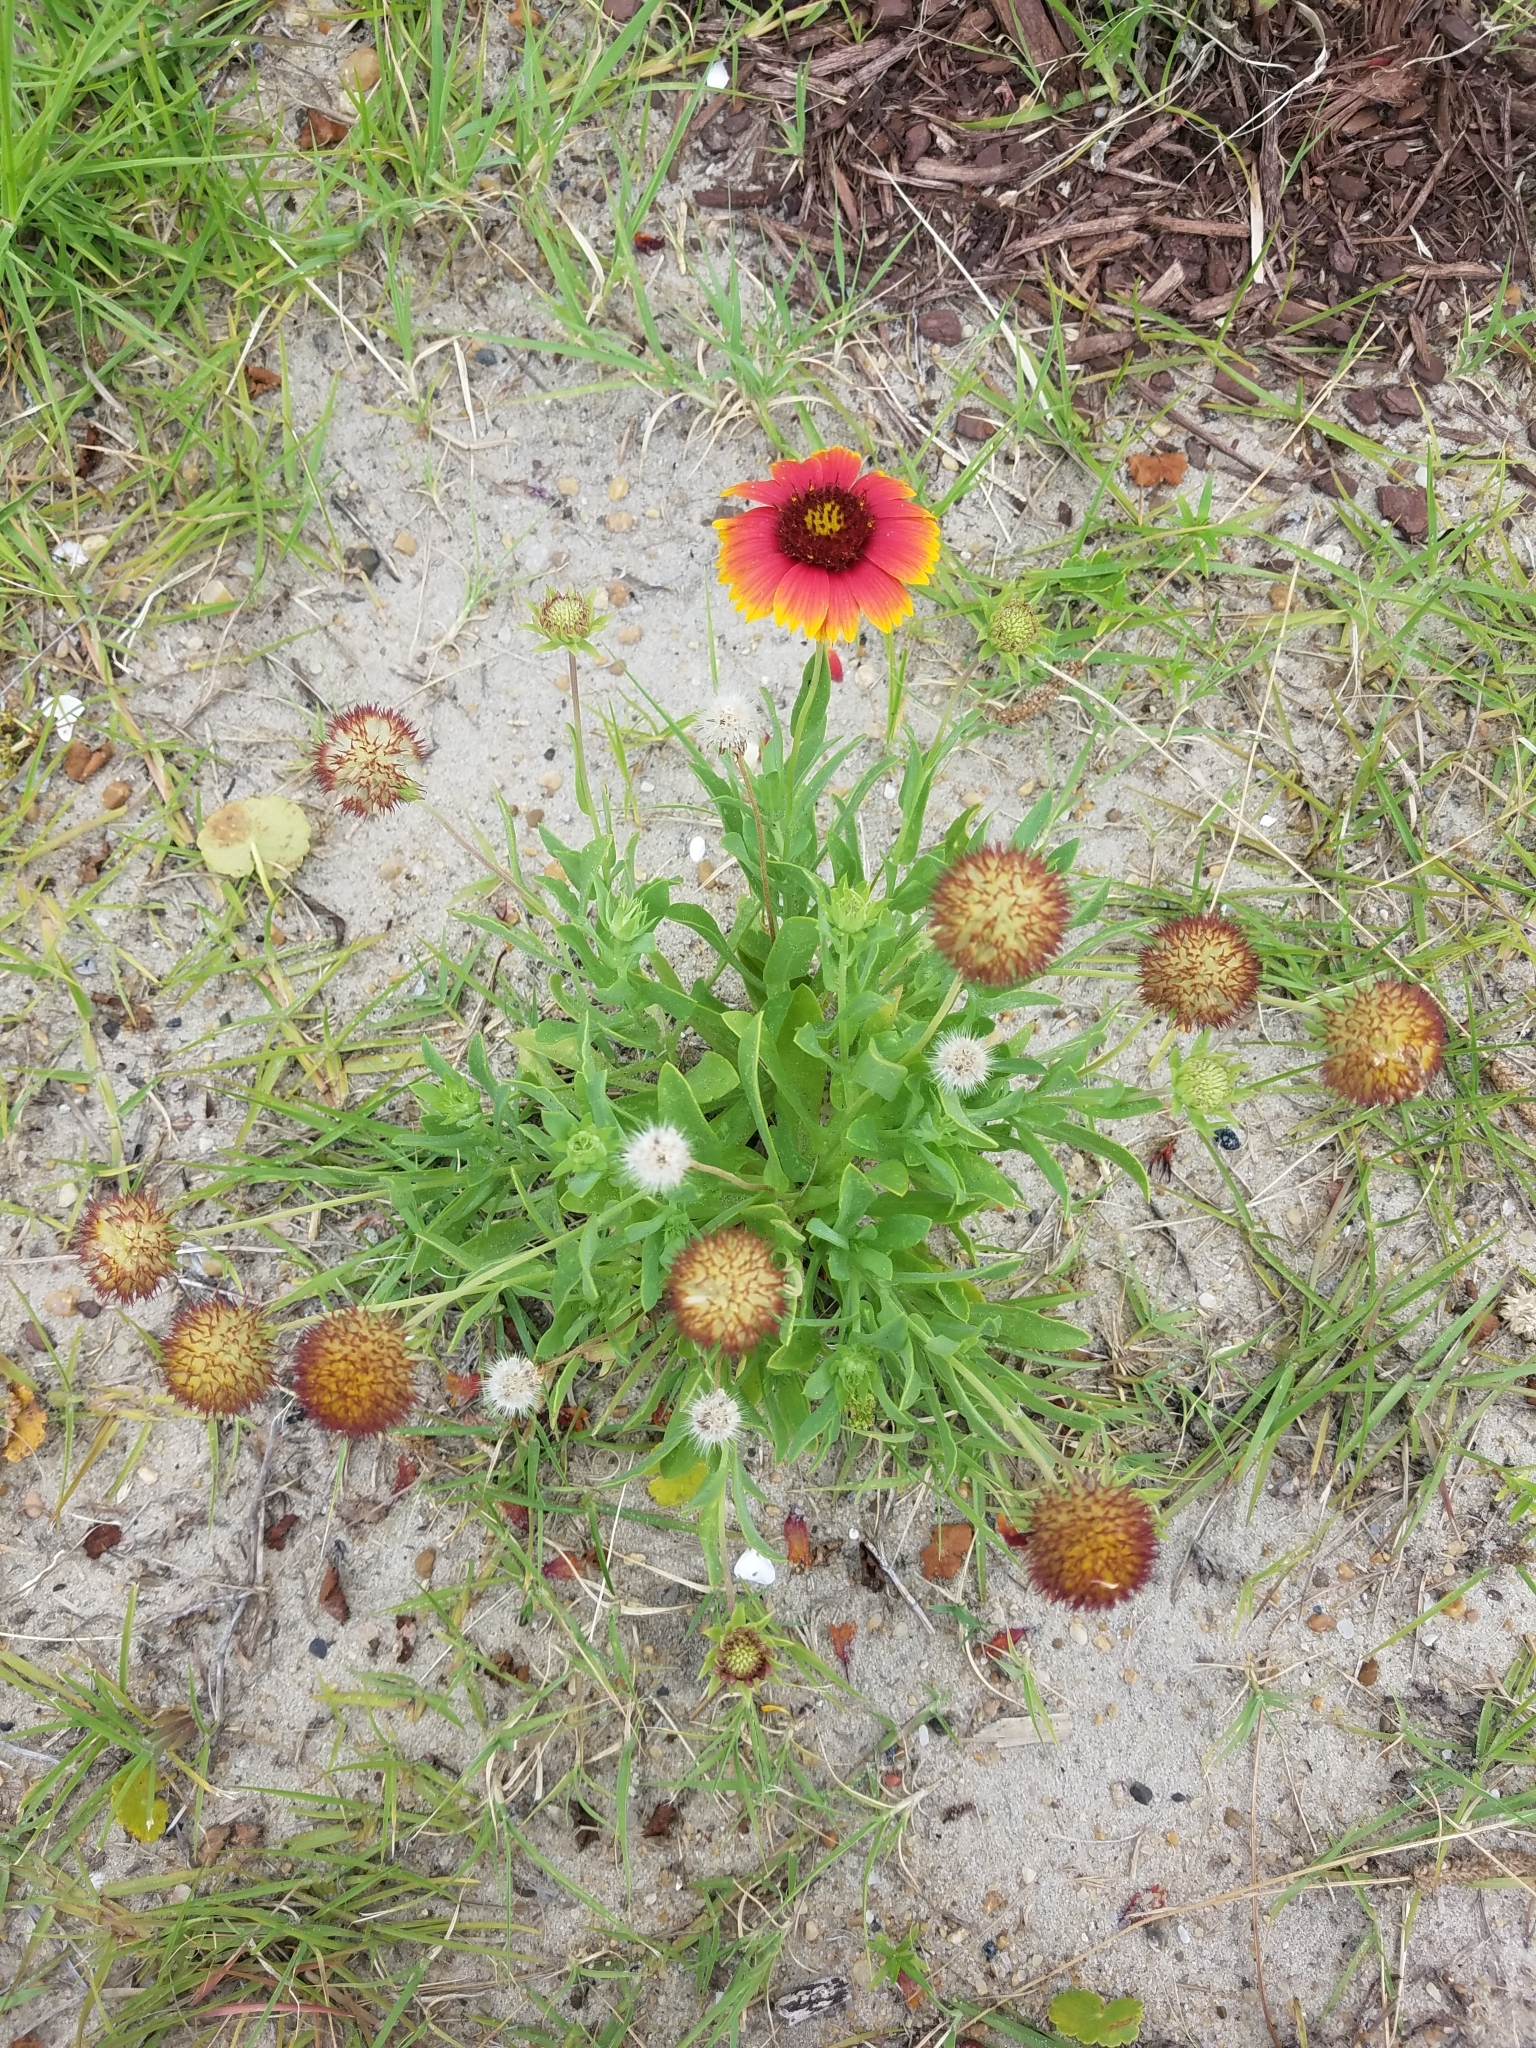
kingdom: Plantae
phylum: Tracheophyta
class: Magnoliopsida
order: Asterales
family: Asteraceae
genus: Gaillardia
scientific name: Gaillardia pulchella
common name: Firewheel
